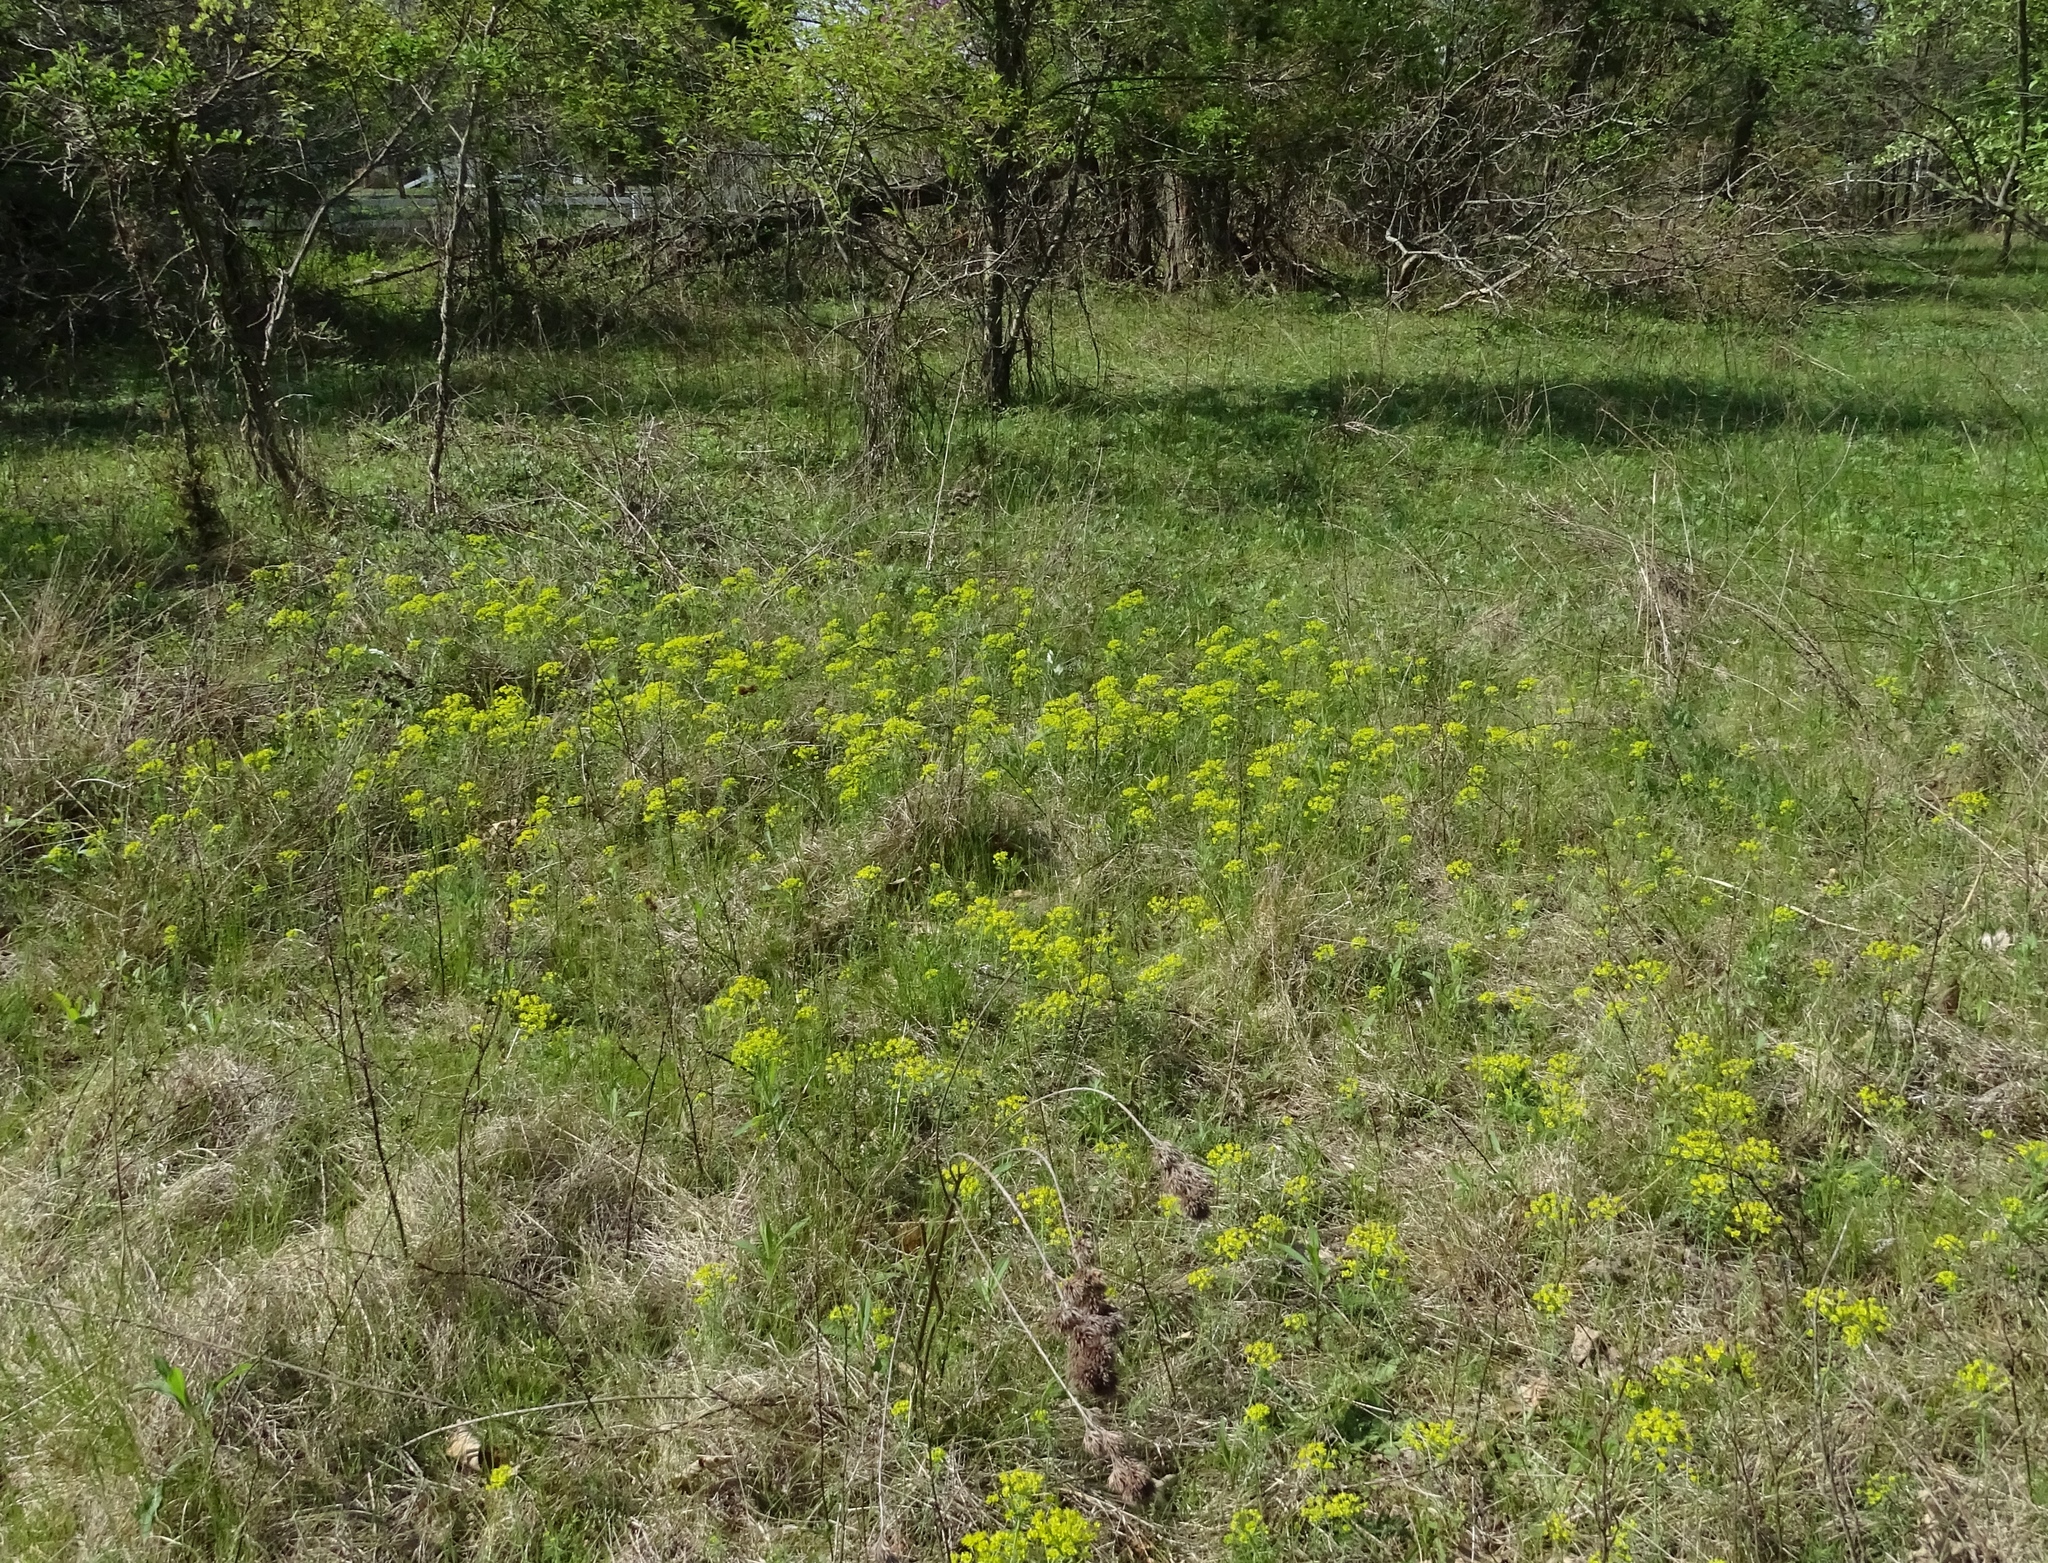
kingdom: Plantae
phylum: Tracheophyta
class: Magnoliopsida
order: Malpighiales
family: Euphorbiaceae
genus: Euphorbia
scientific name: Euphorbia cyparissias
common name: Cypress spurge
